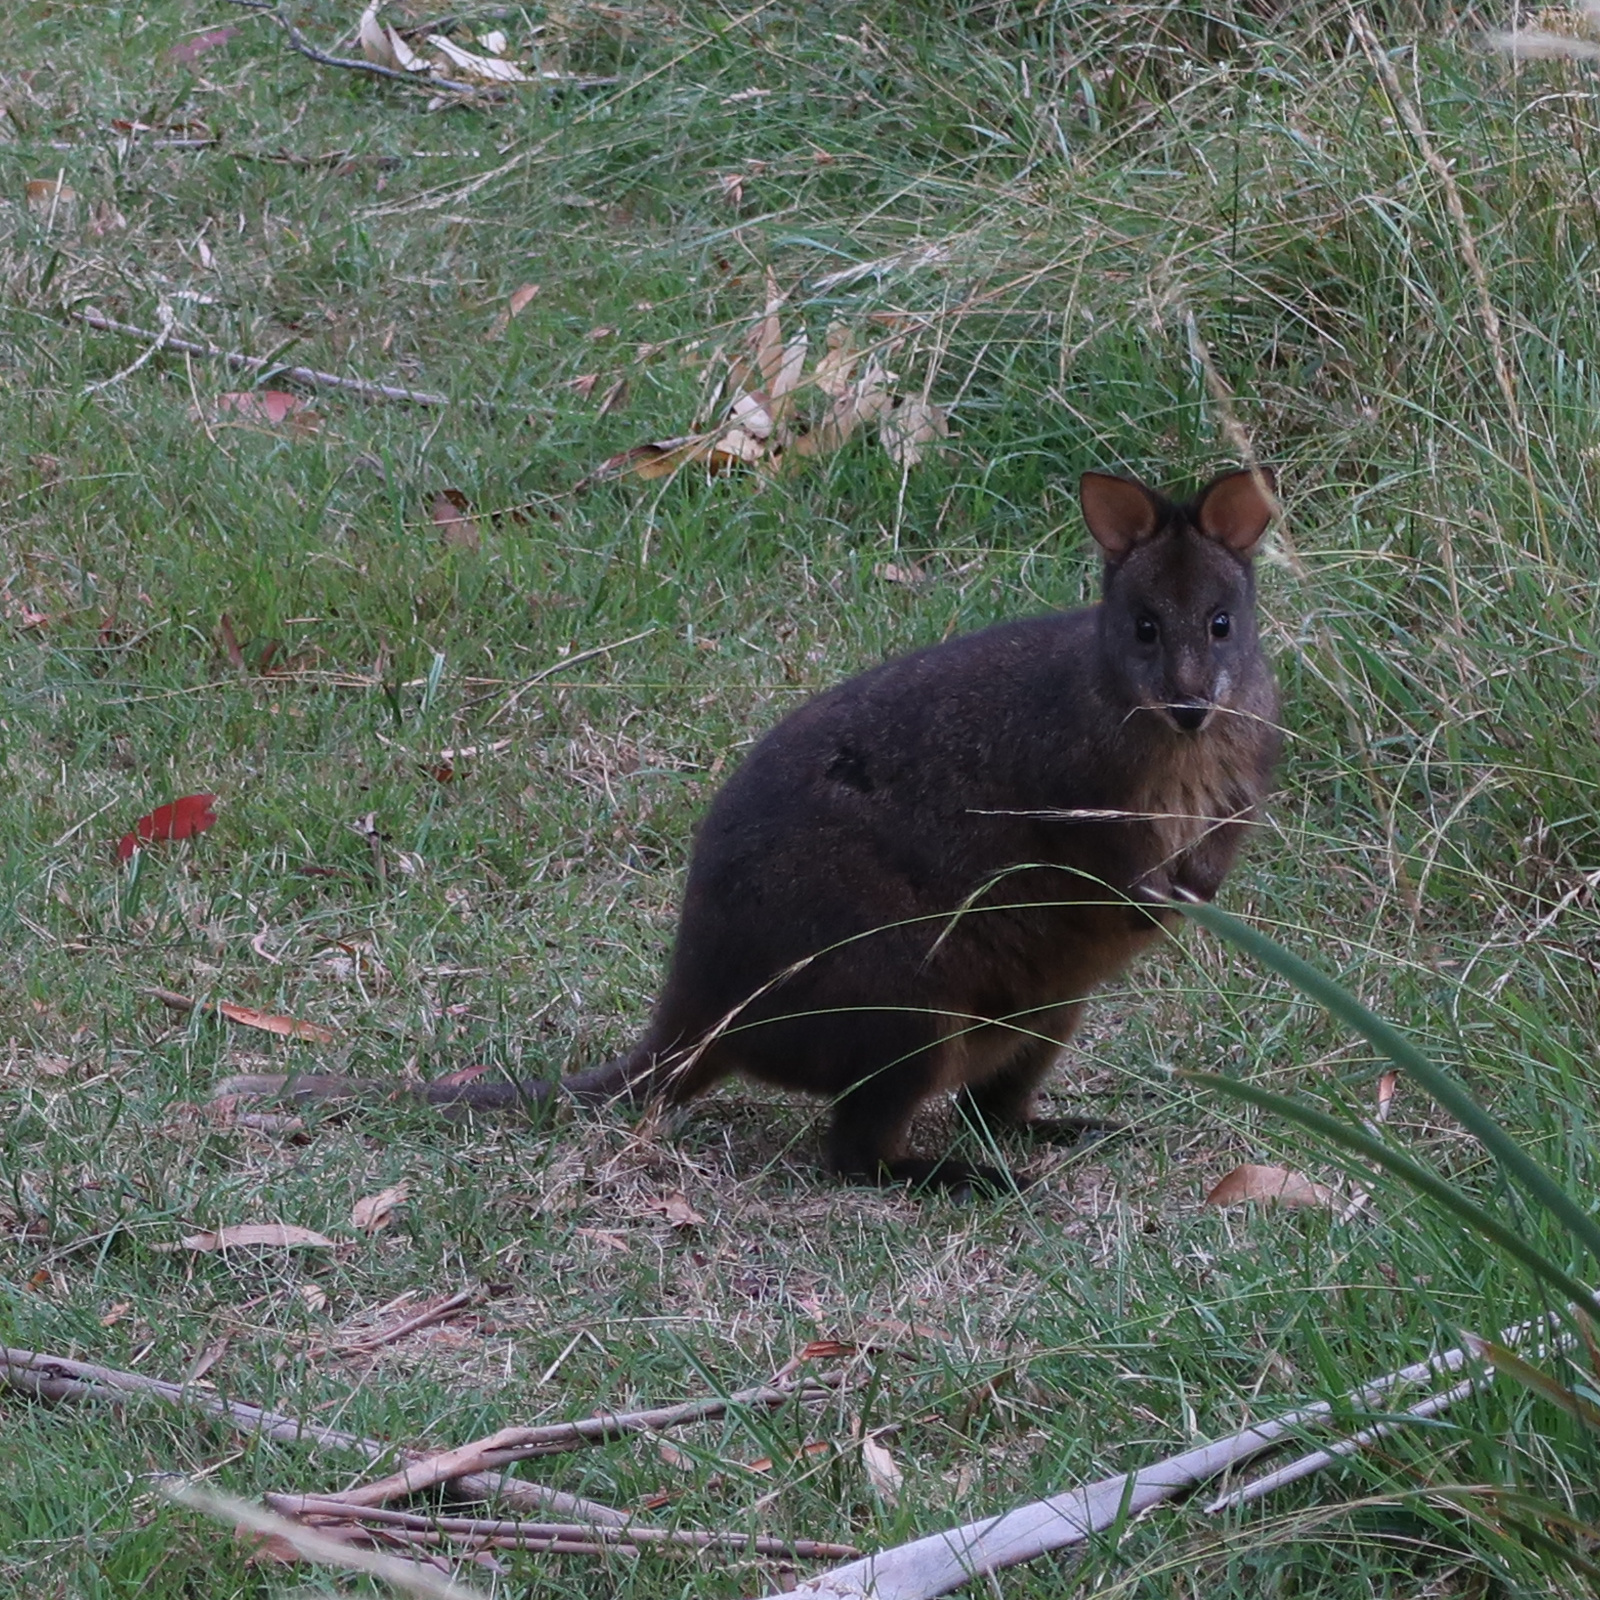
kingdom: Animalia
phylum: Chordata
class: Mammalia
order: Diprotodontia
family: Macropodidae
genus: Thylogale
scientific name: Thylogale billardierii
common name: Tasmanian pademelon
